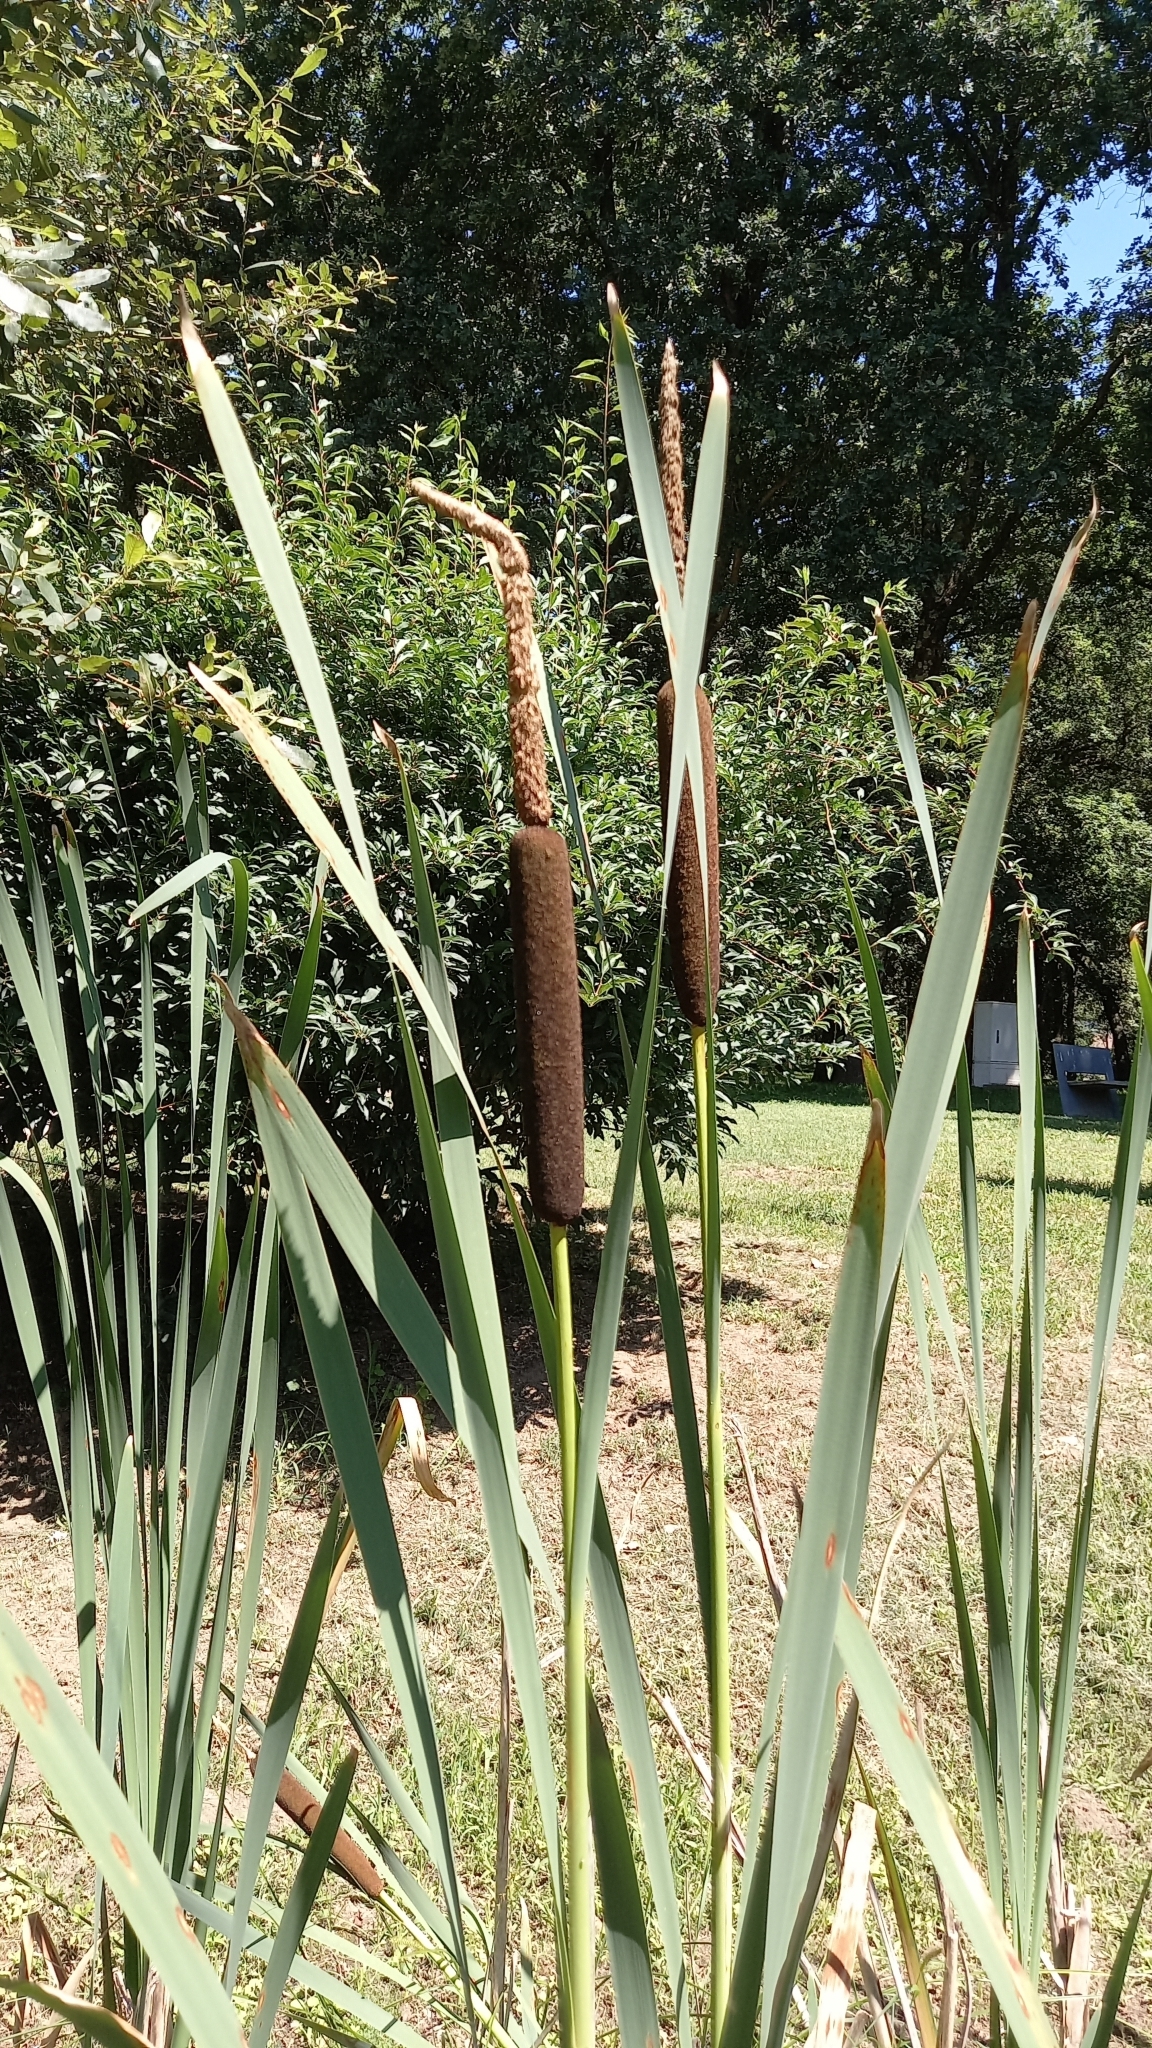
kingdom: Plantae
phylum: Tracheophyta
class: Liliopsida
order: Poales
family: Typhaceae
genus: Typha
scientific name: Typha latifolia
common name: Broadleaf cattail
